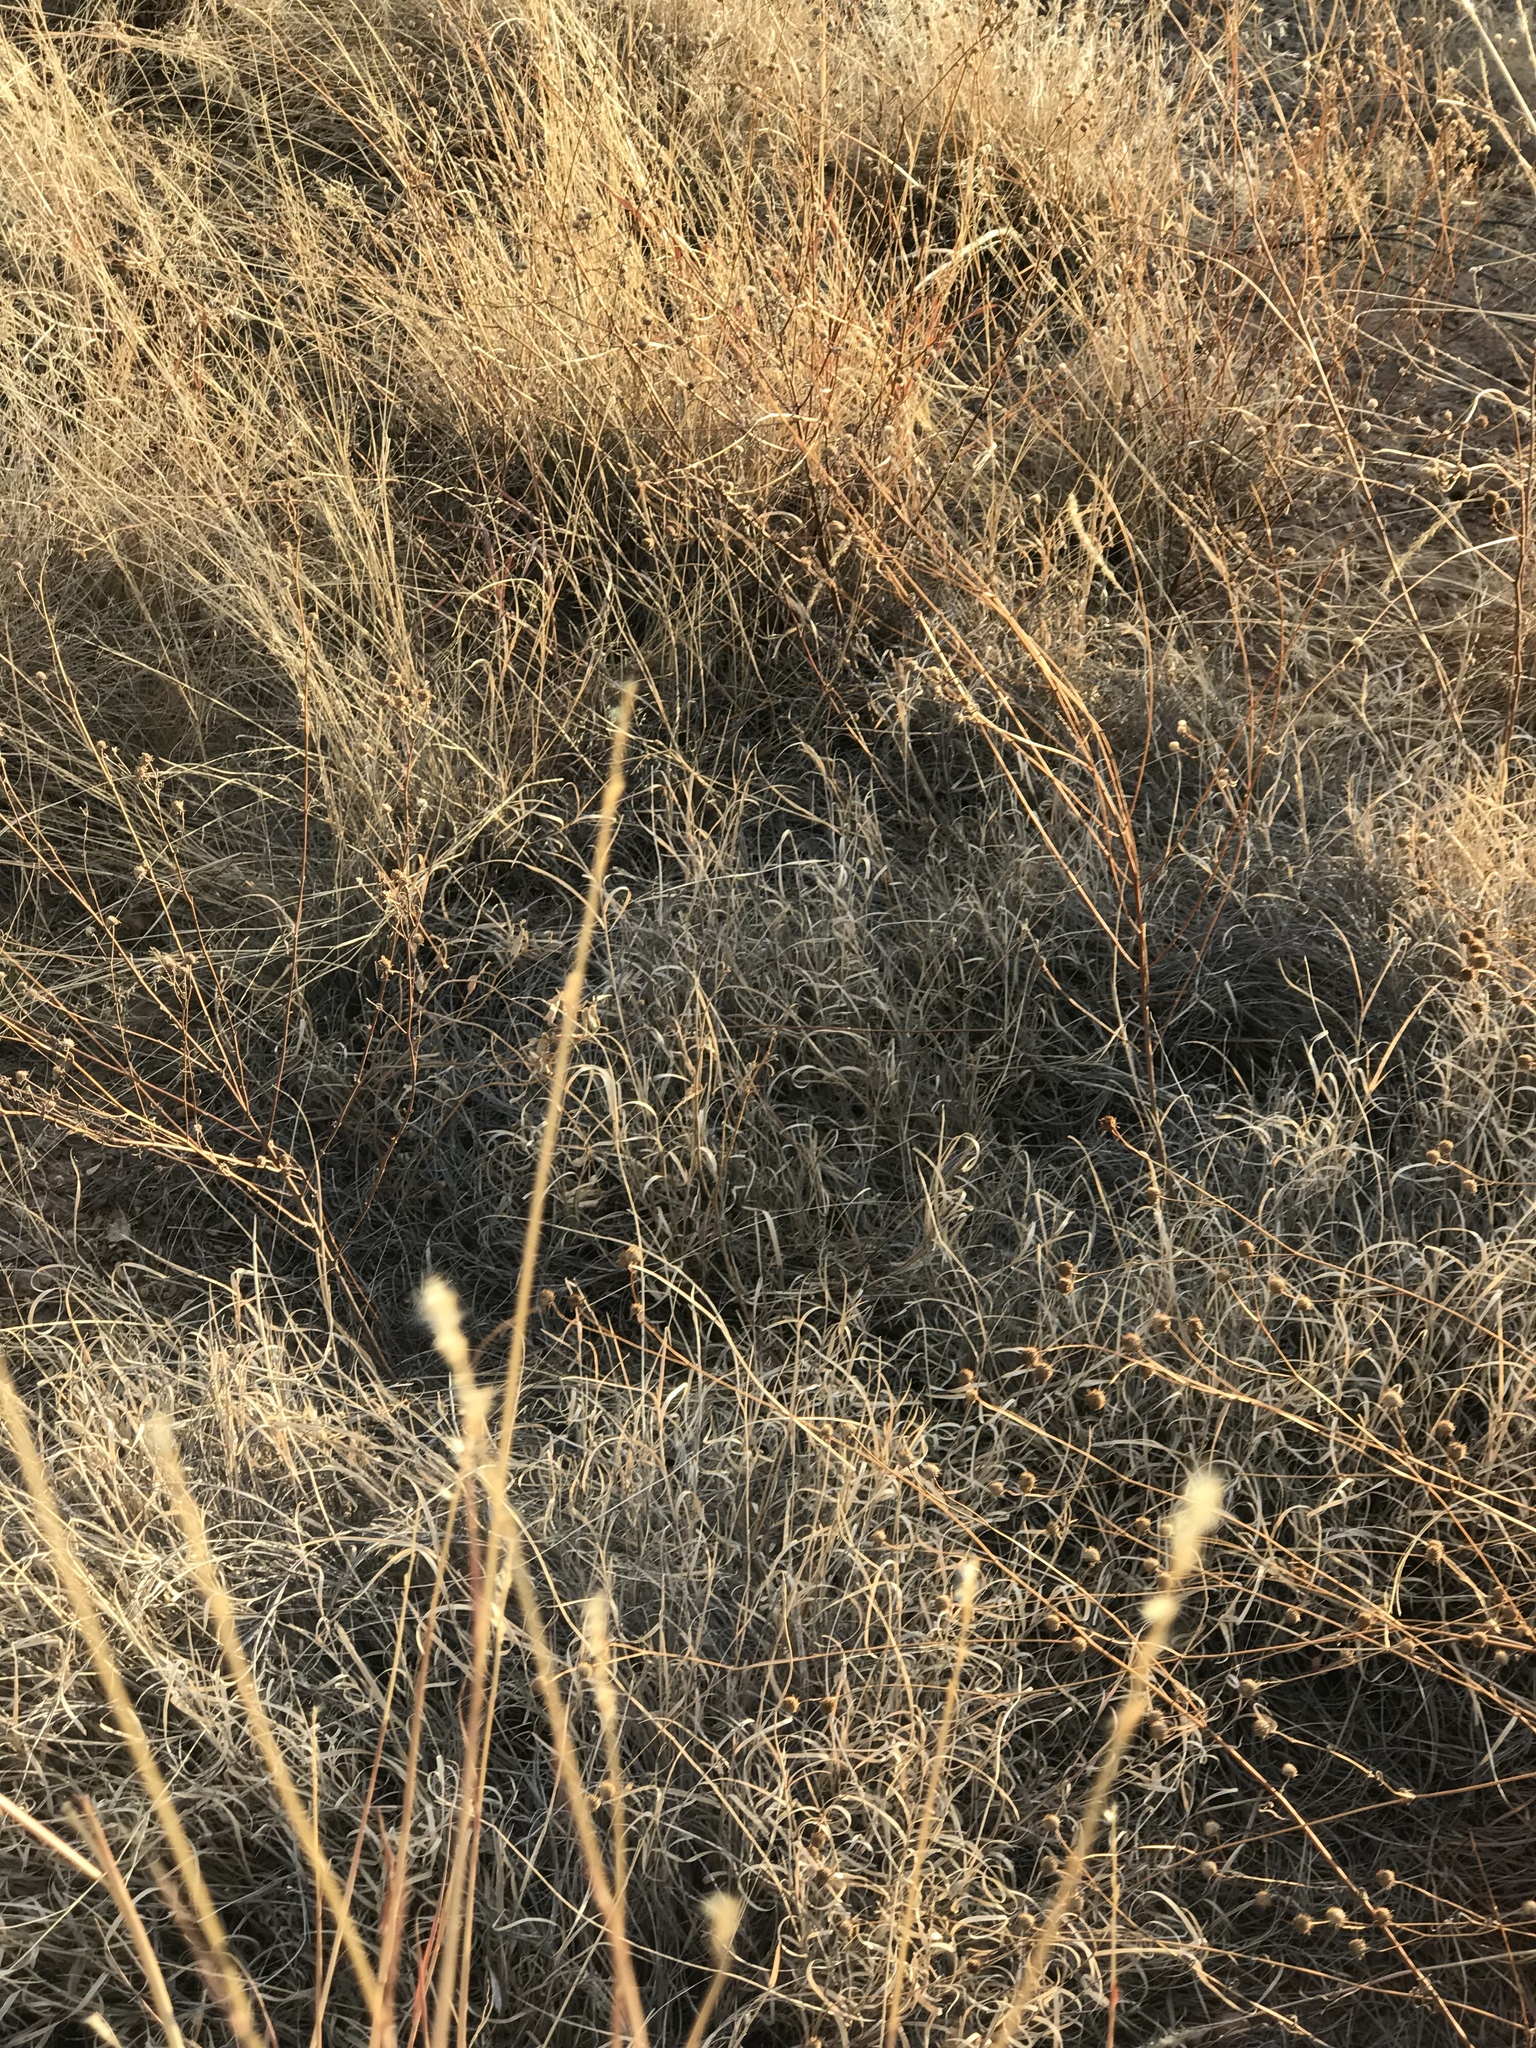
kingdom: Plantae
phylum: Tracheophyta
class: Liliopsida
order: Poales
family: Poaceae
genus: Bothriochloa
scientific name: Bothriochloa barbinodis
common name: Cane bluestem
